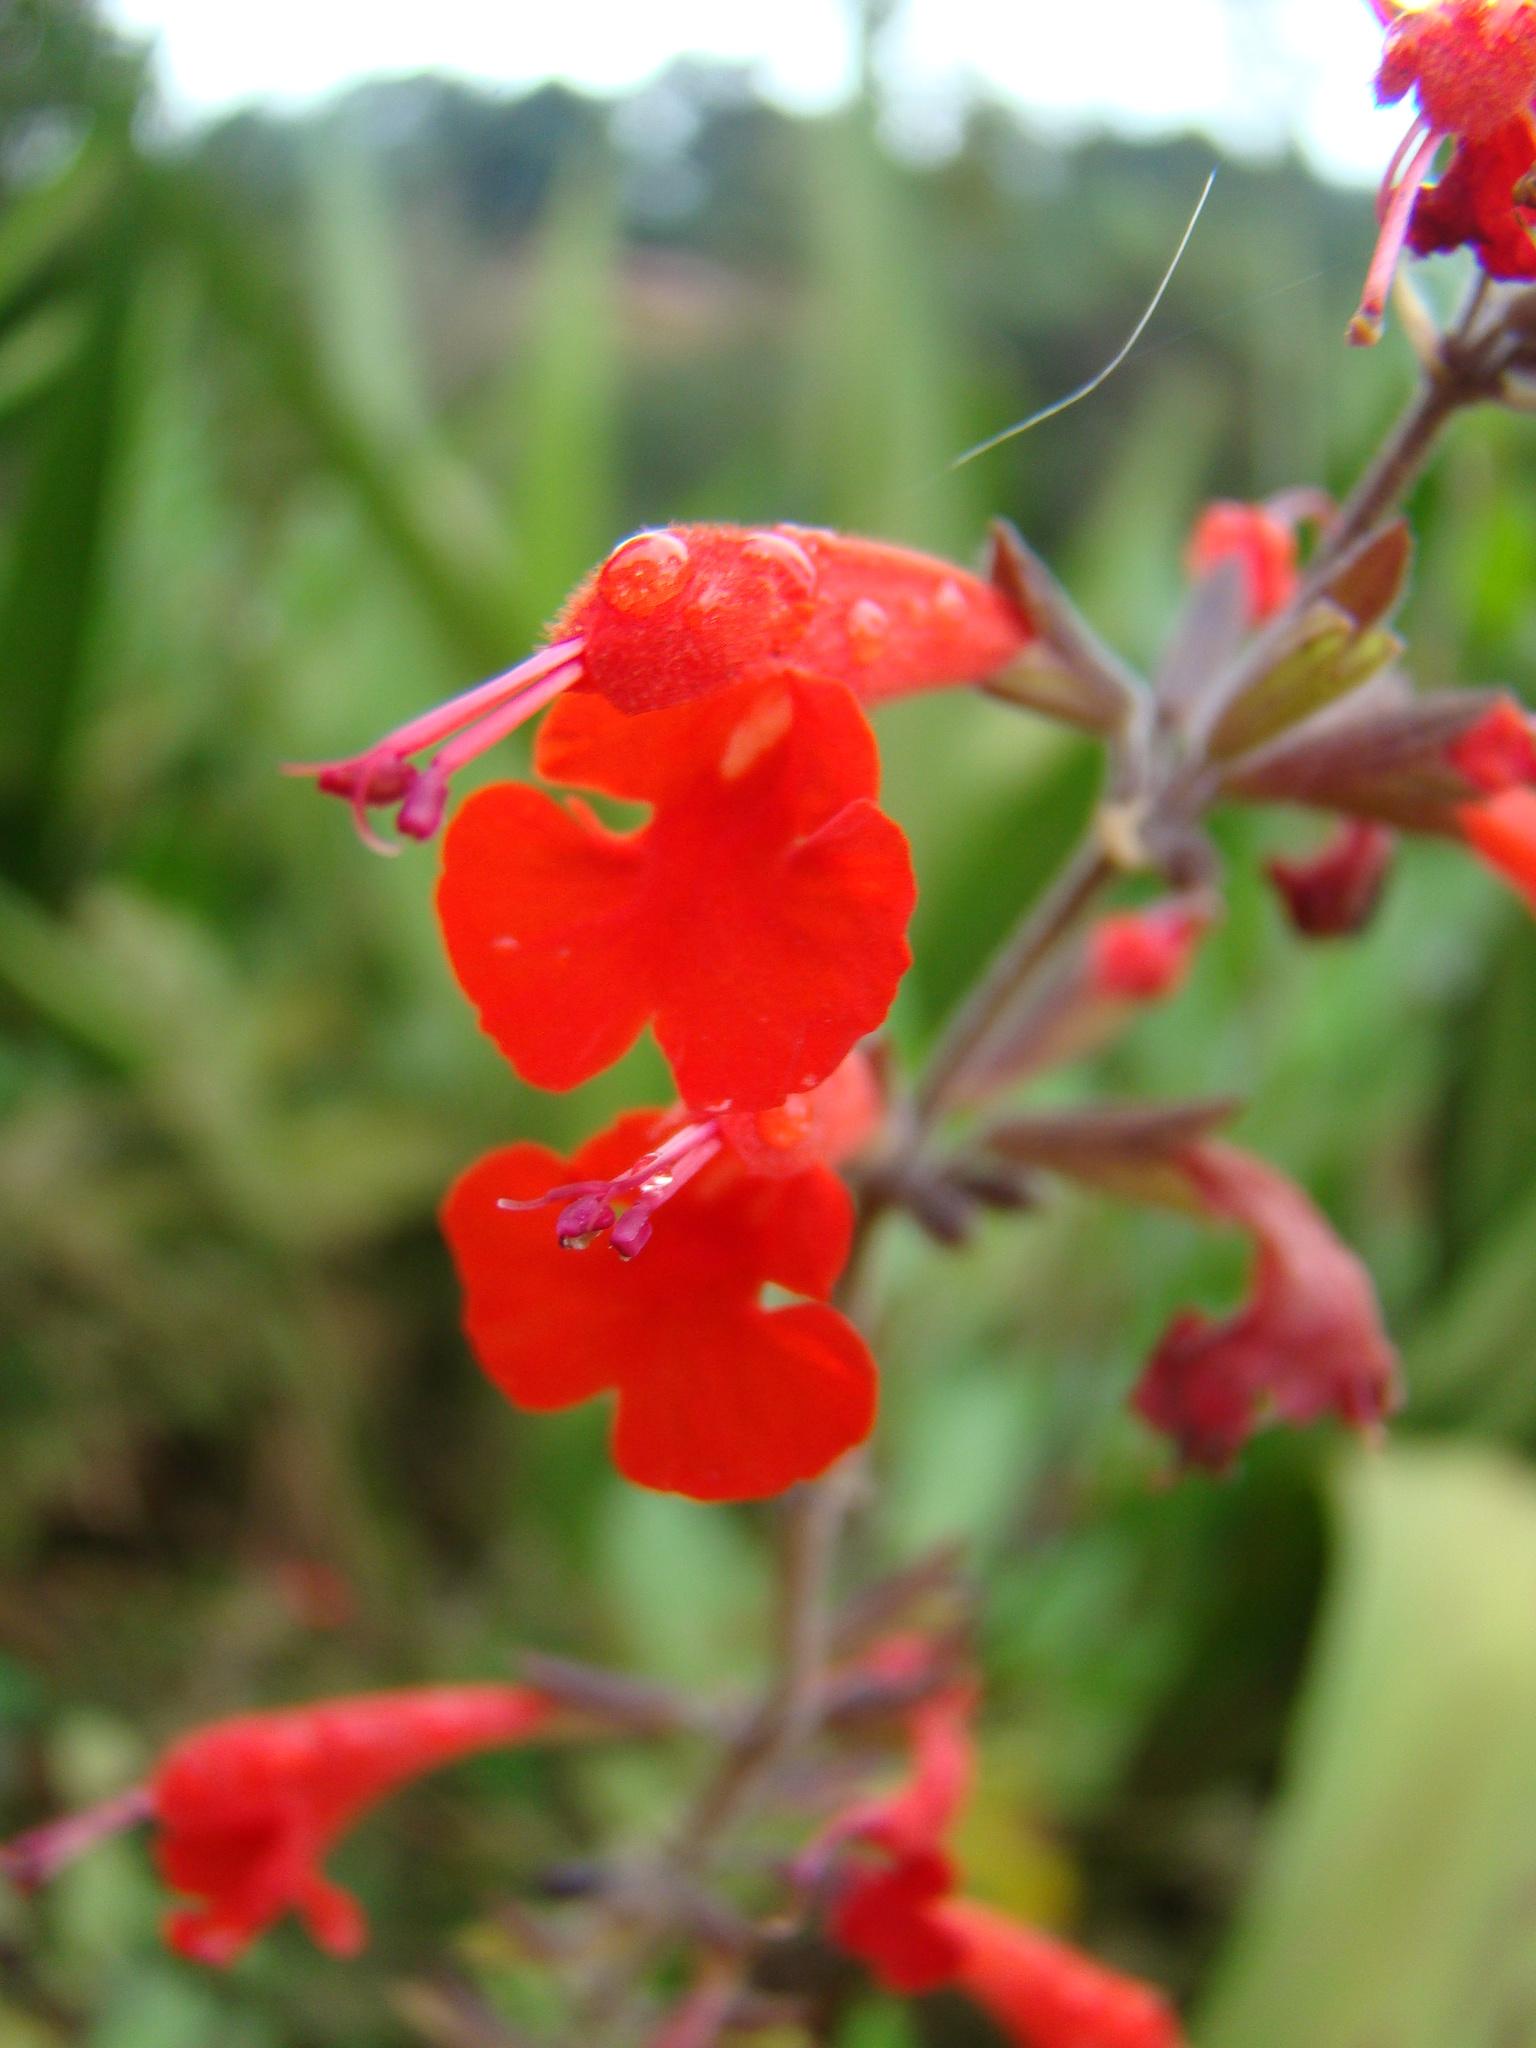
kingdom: Plantae
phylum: Tracheophyta
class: Magnoliopsida
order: Lamiales
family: Lamiaceae
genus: Salvia
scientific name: Salvia coccinea
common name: Blood sage
